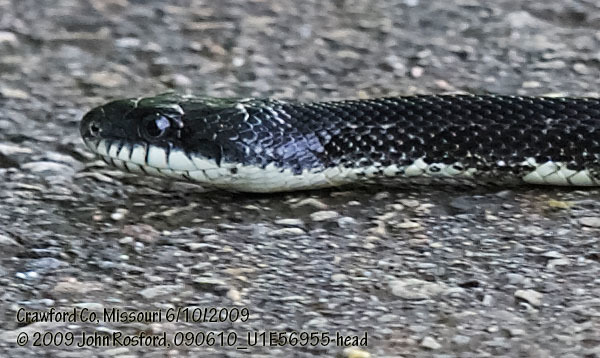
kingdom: Animalia
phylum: Chordata
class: Squamata
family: Colubridae
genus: Pantherophis
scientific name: Pantherophis obsoletus
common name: Black rat snake
